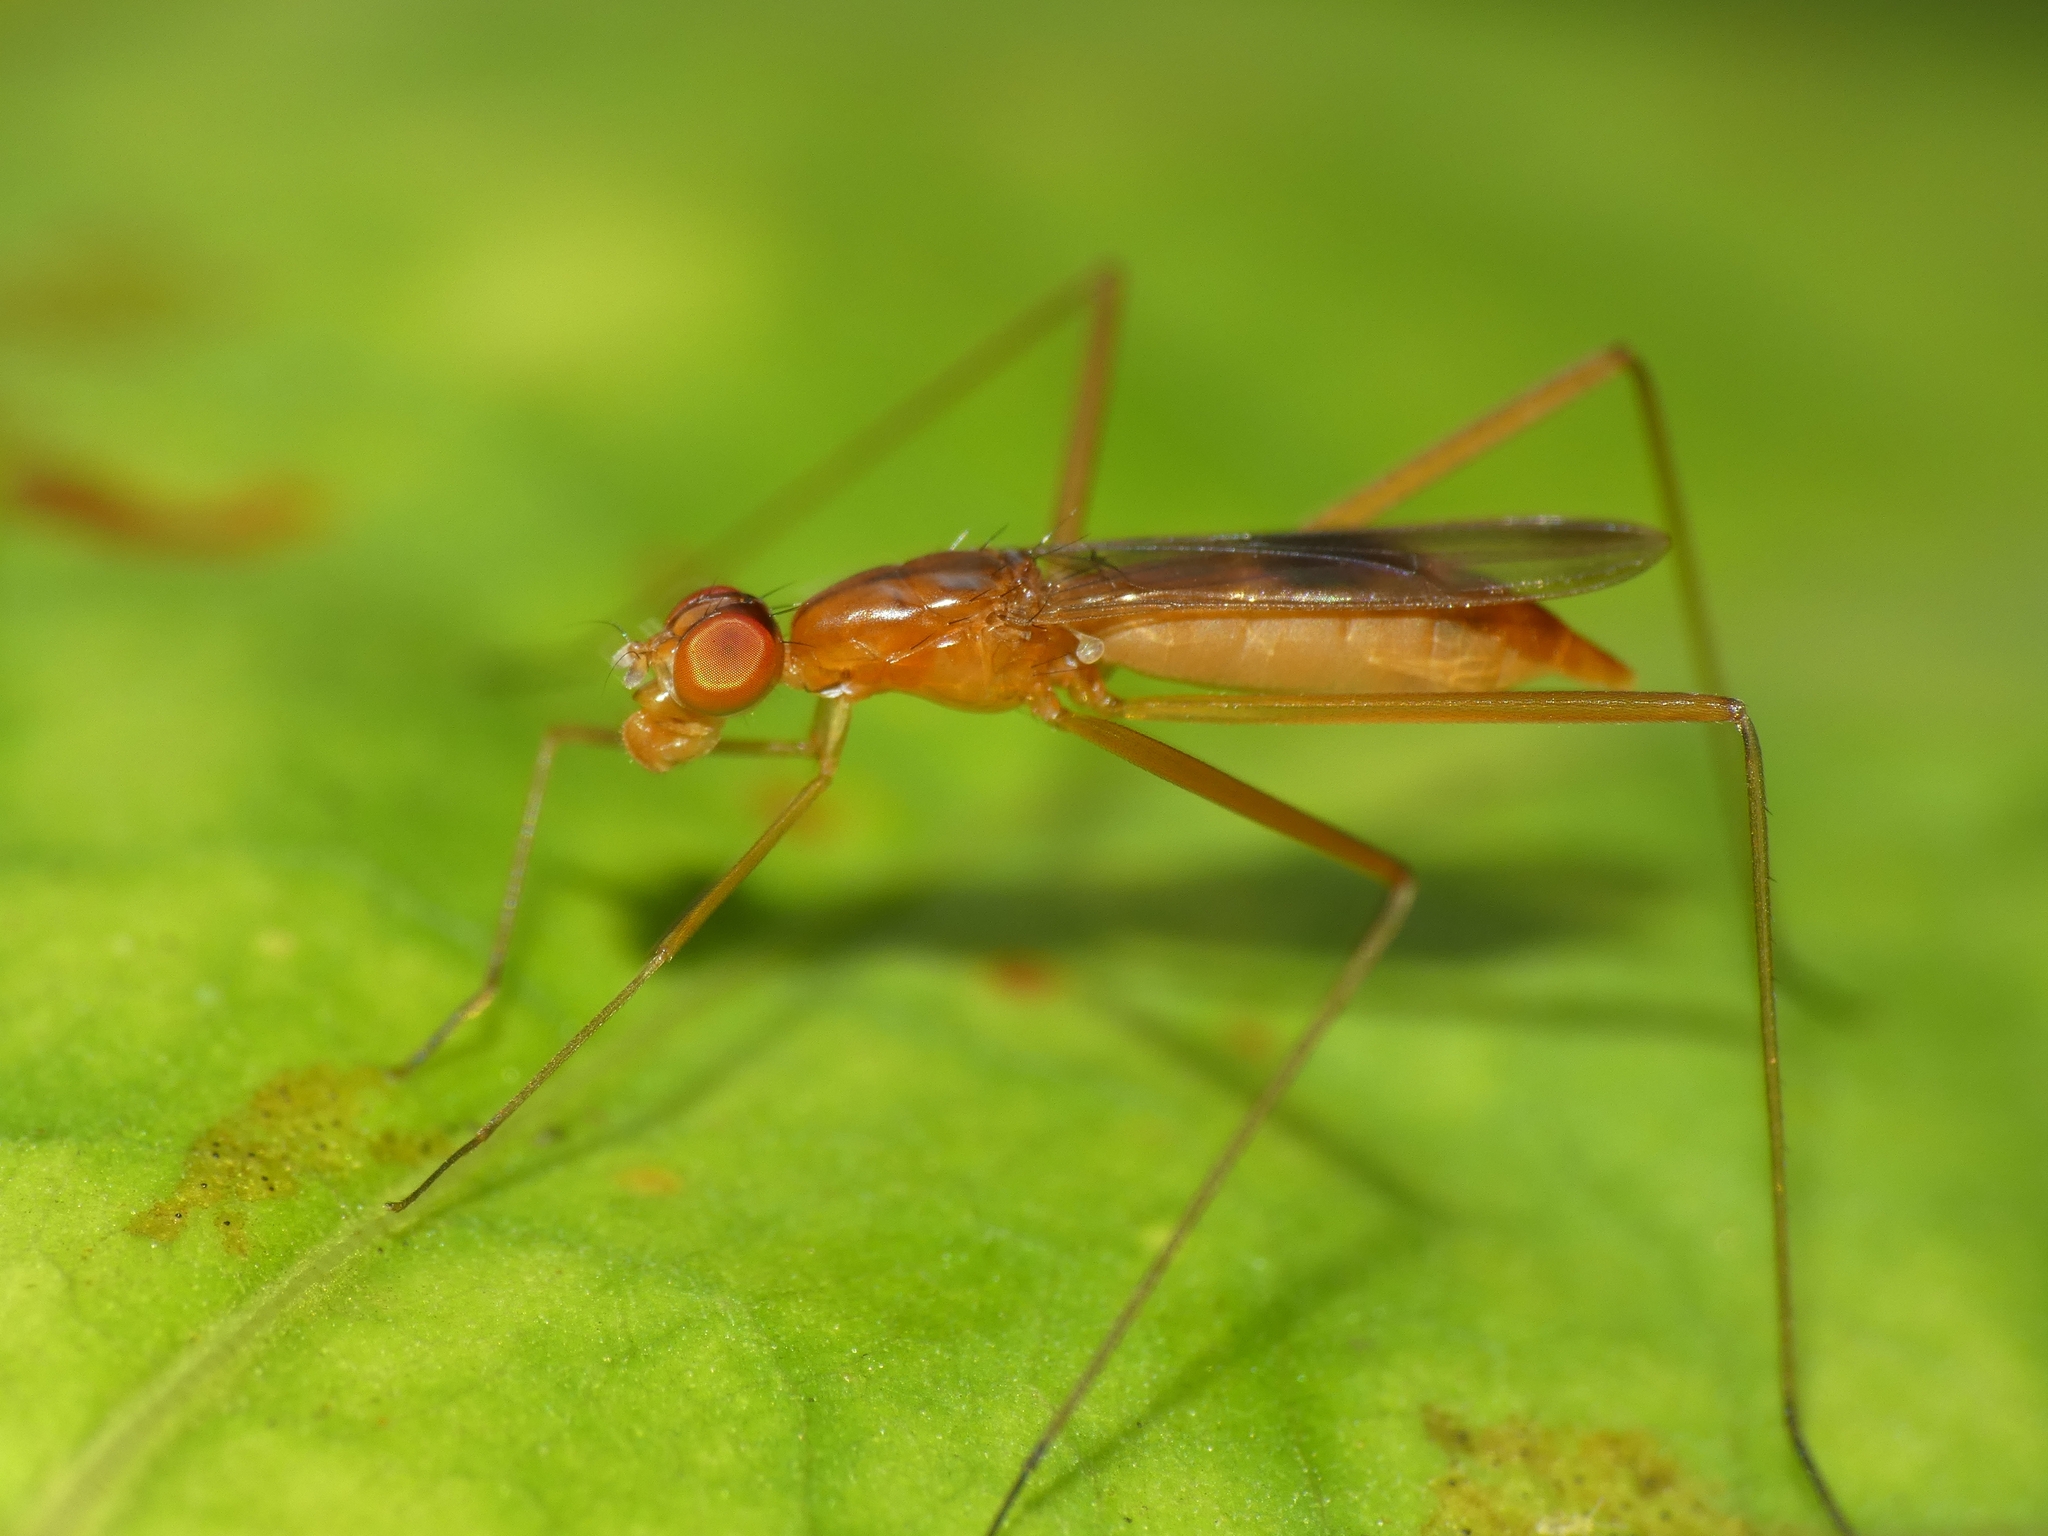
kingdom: Animalia
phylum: Arthropoda
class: Insecta
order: Diptera
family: Micropezidae
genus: Cothornobata
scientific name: Cothornobata macula
